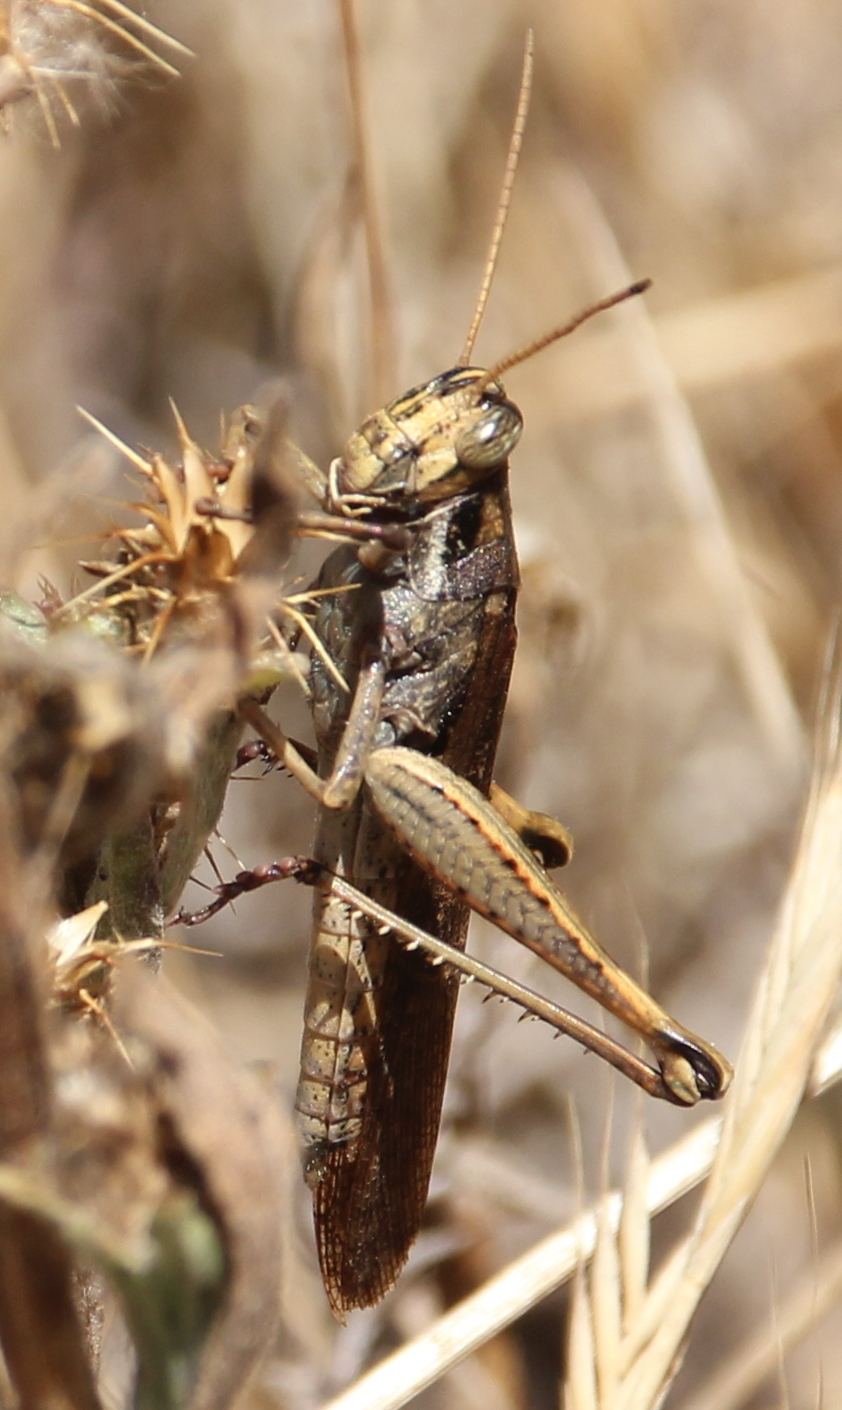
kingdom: Animalia
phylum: Arthropoda
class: Insecta
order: Orthoptera
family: Acrididae
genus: Schistocerca
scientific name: Schistocerca nitens
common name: Vagrant grasshopper
